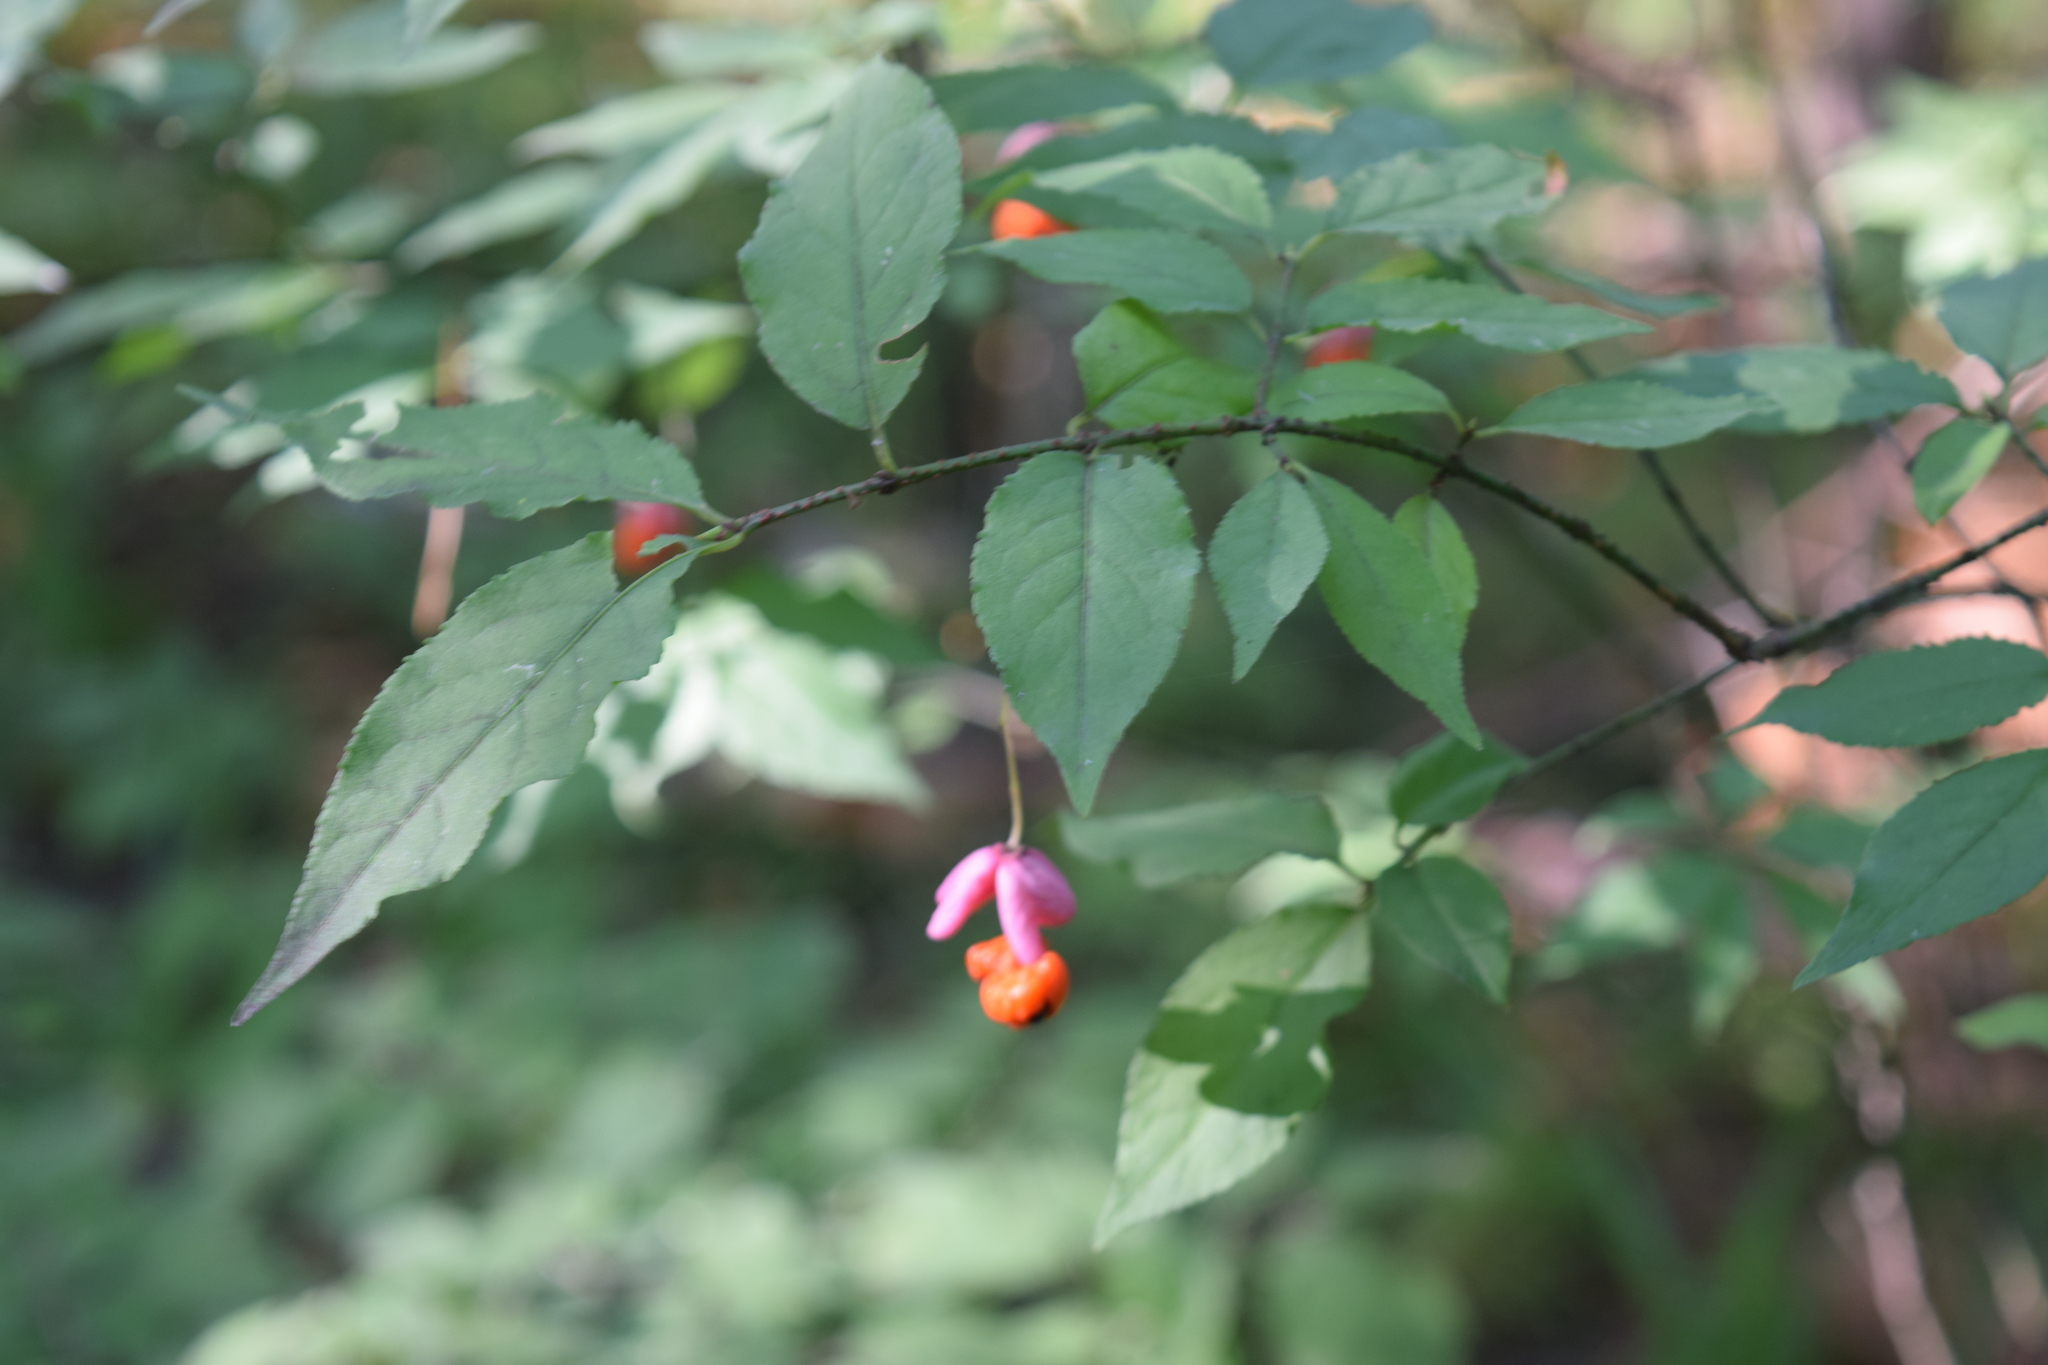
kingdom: Plantae
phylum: Tracheophyta
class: Magnoliopsida
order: Celastrales
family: Celastraceae
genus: Euonymus
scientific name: Euonymus verrucosus
